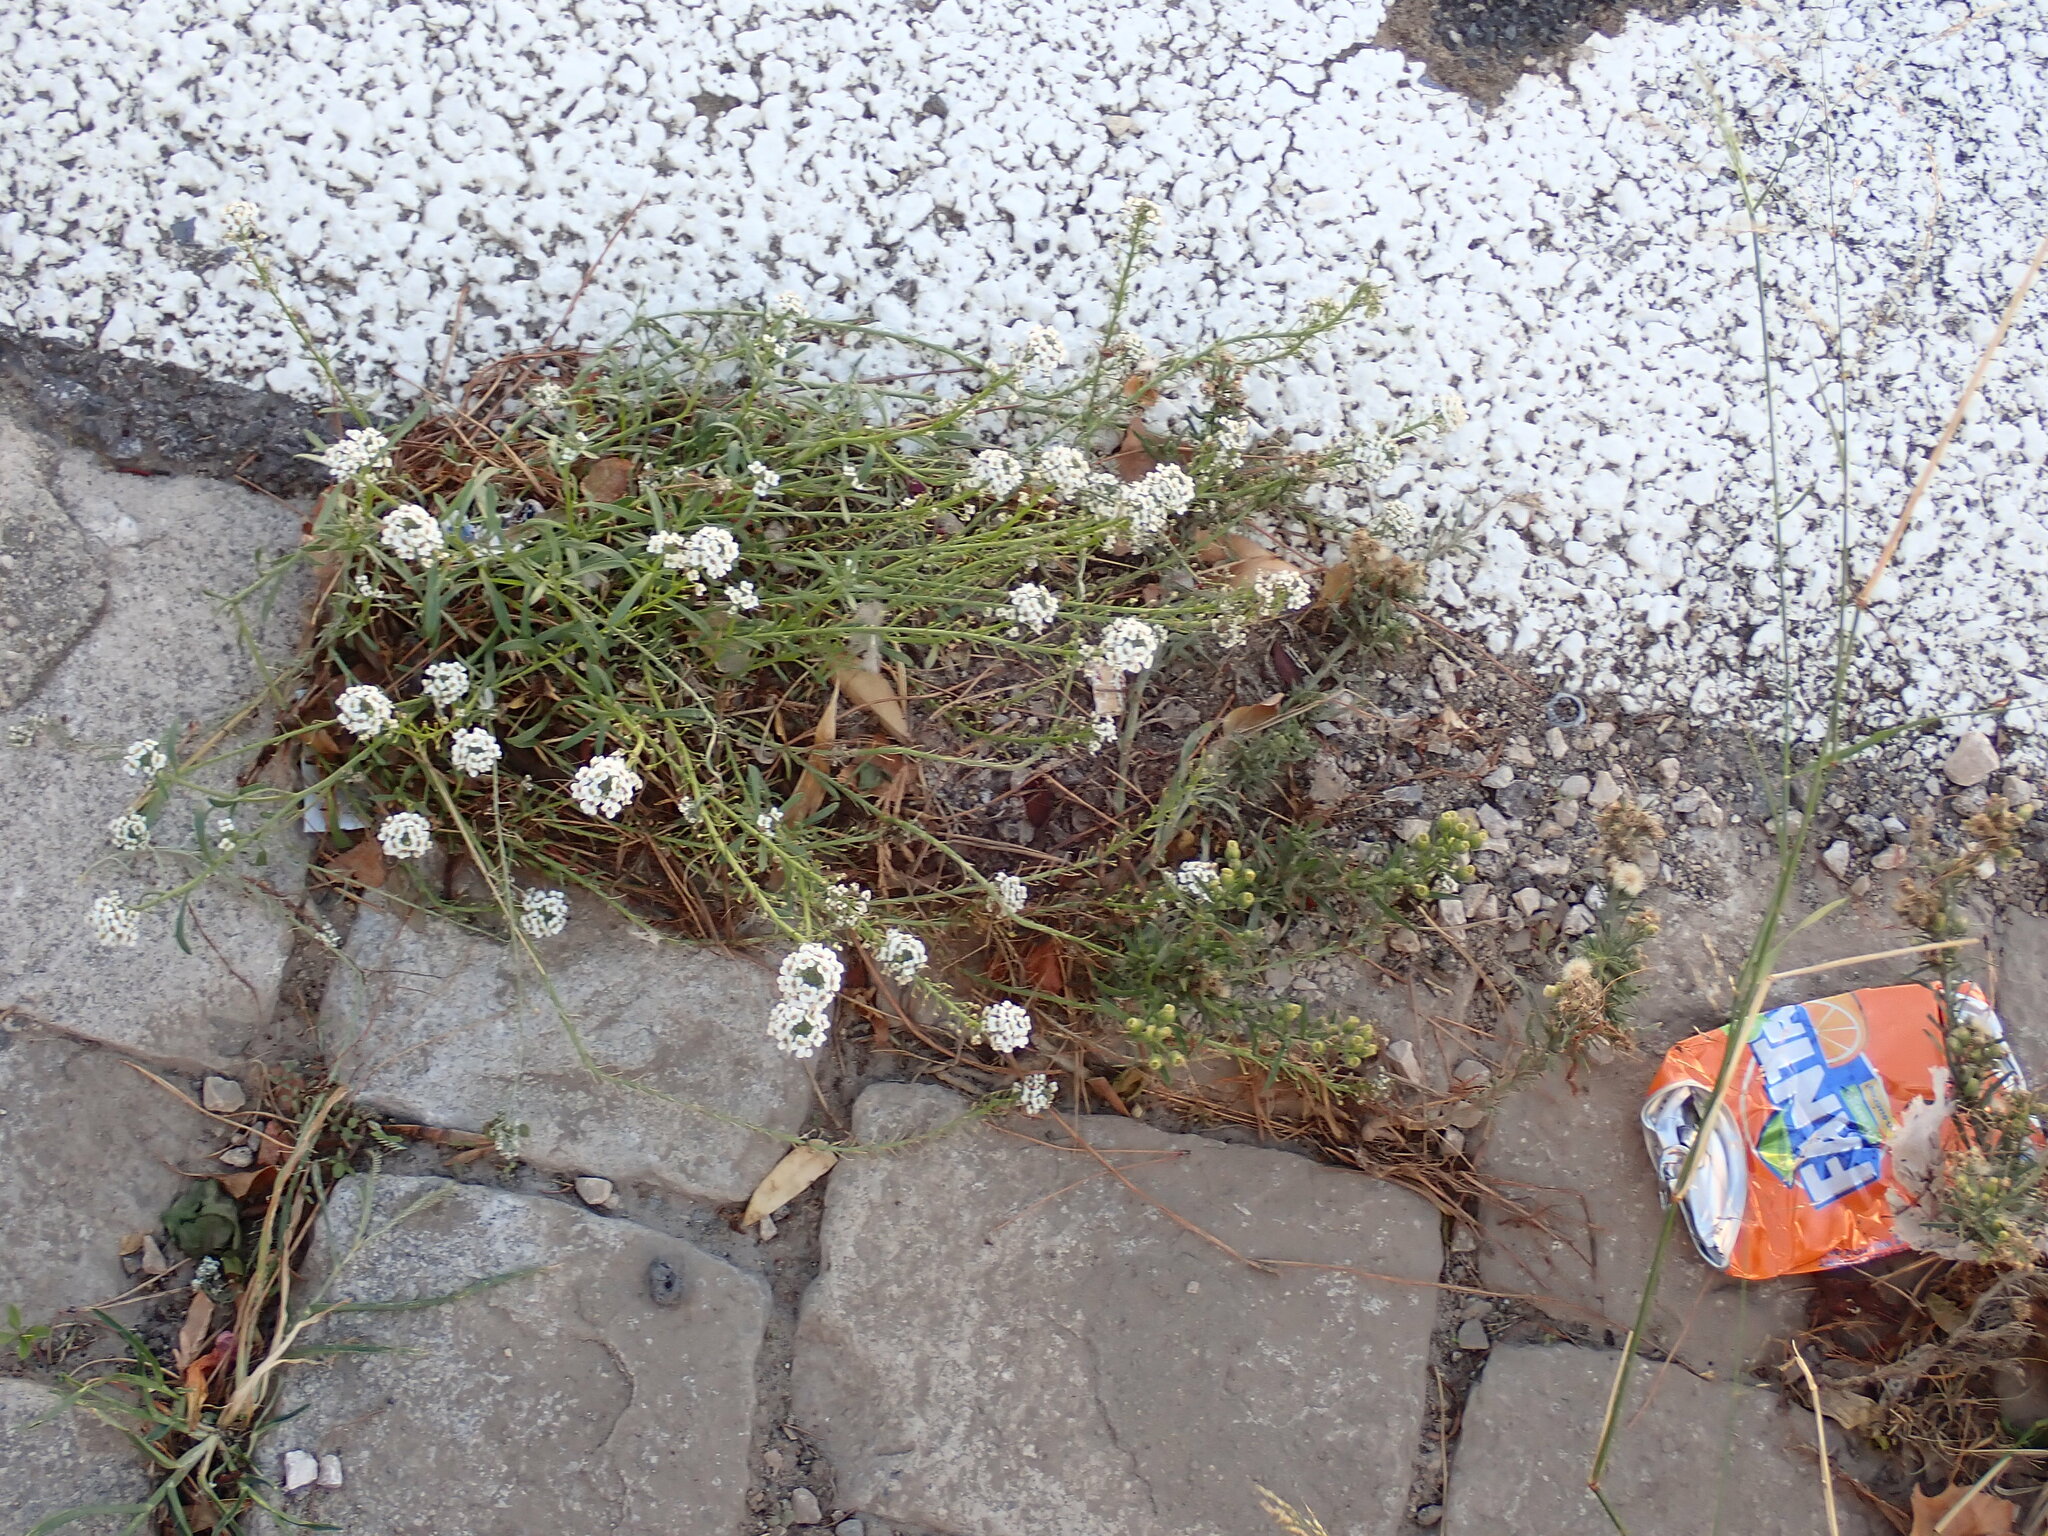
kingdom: Plantae
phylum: Tracheophyta
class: Magnoliopsida
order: Brassicales
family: Brassicaceae
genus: Lobularia
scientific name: Lobularia maritima
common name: Sweet alison
